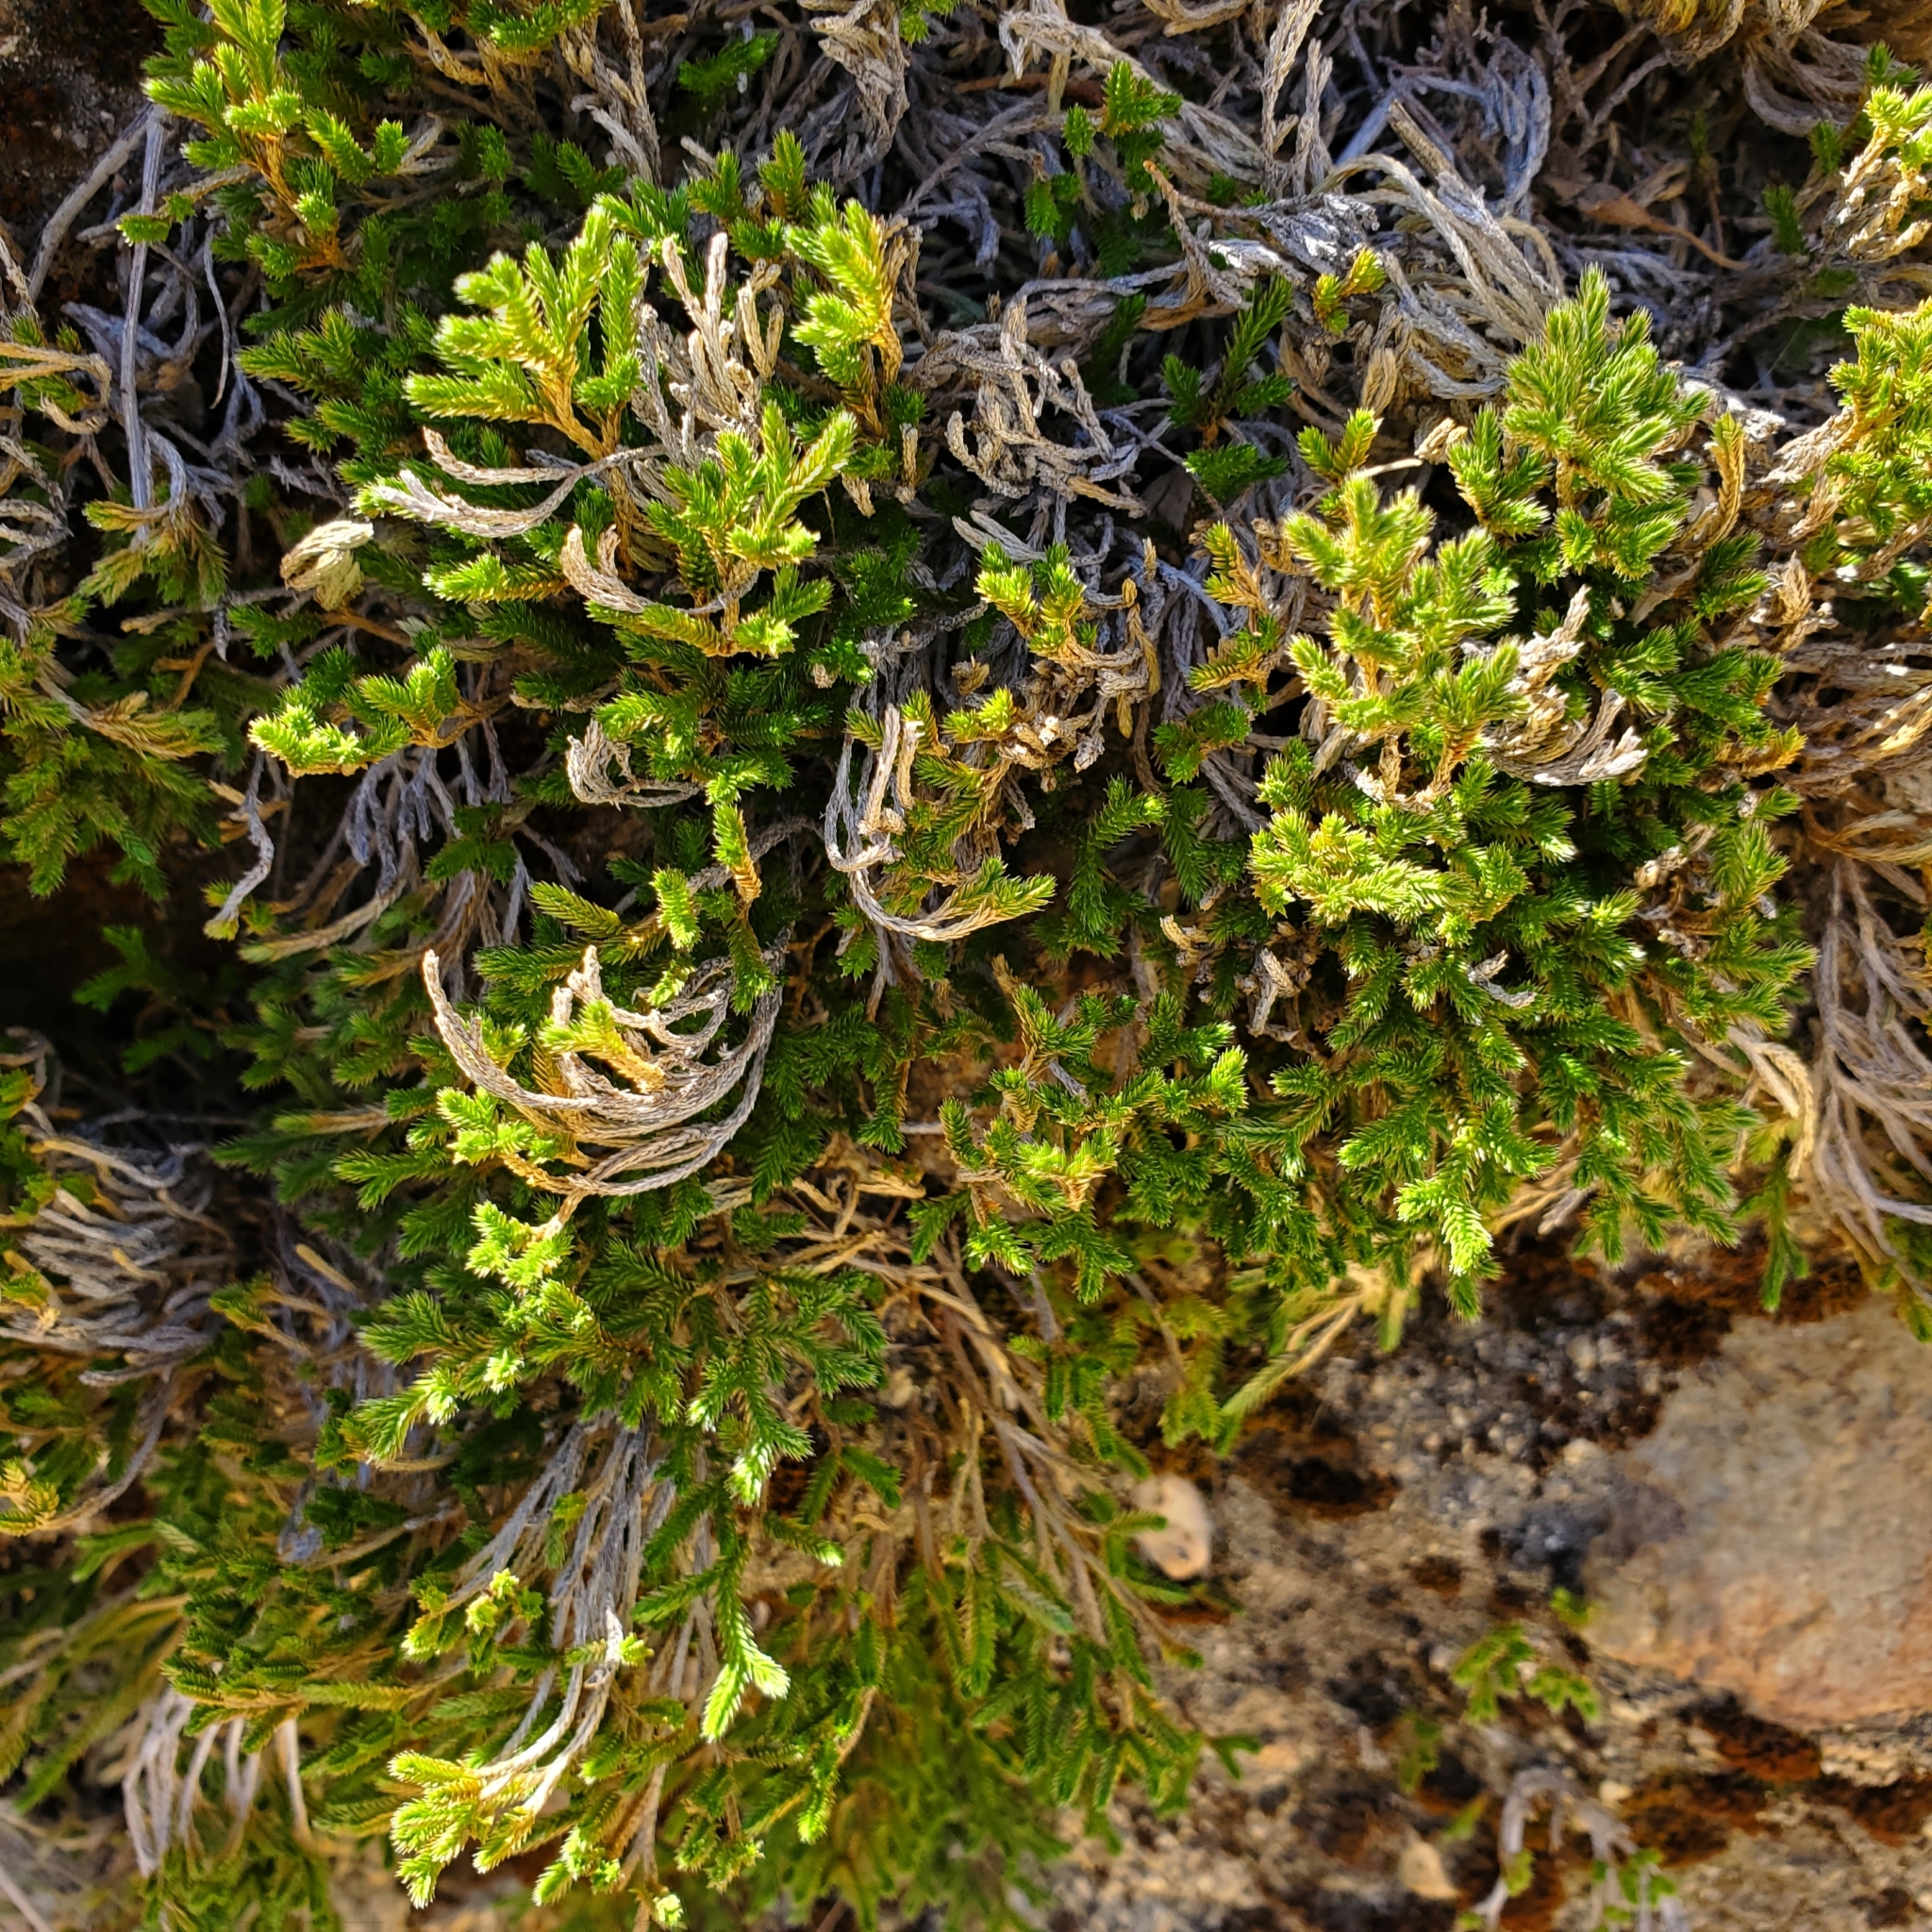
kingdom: Plantae
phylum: Tracheophyta
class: Lycopodiopsida
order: Selaginellales
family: Selaginellaceae
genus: Selaginella
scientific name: Selaginella bigelovii
